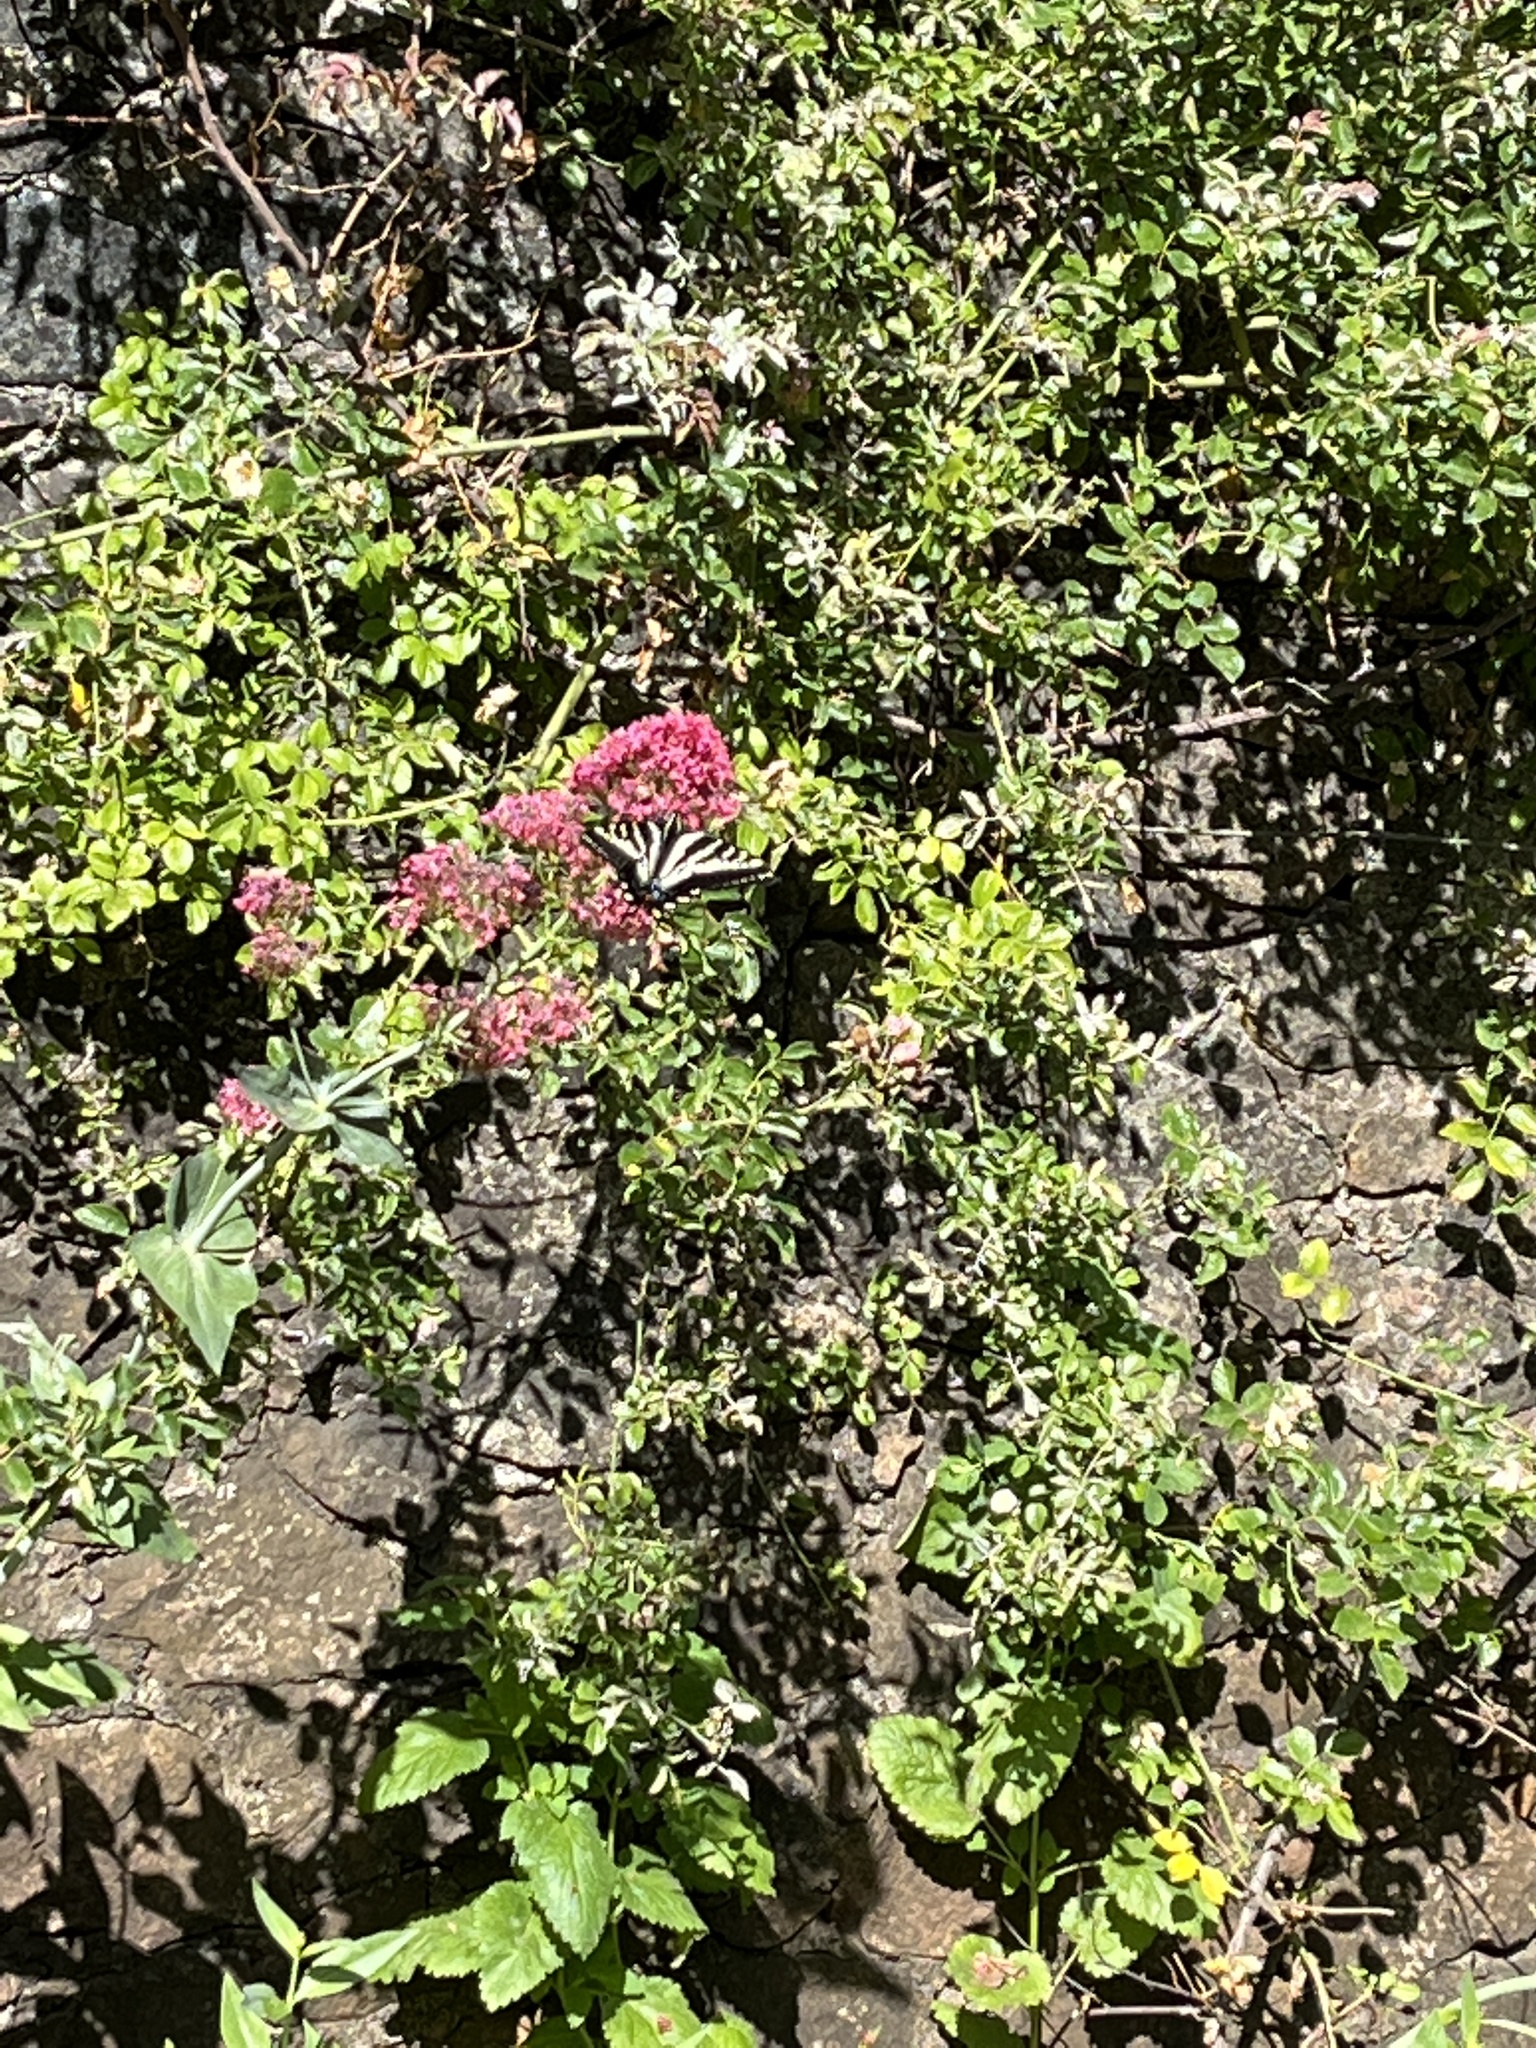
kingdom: Animalia
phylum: Arthropoda
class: Insecta
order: Lepidoptera
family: Papilionidae
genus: Papilio
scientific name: Papilio eurymedon
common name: Pale tiger swallowtail
